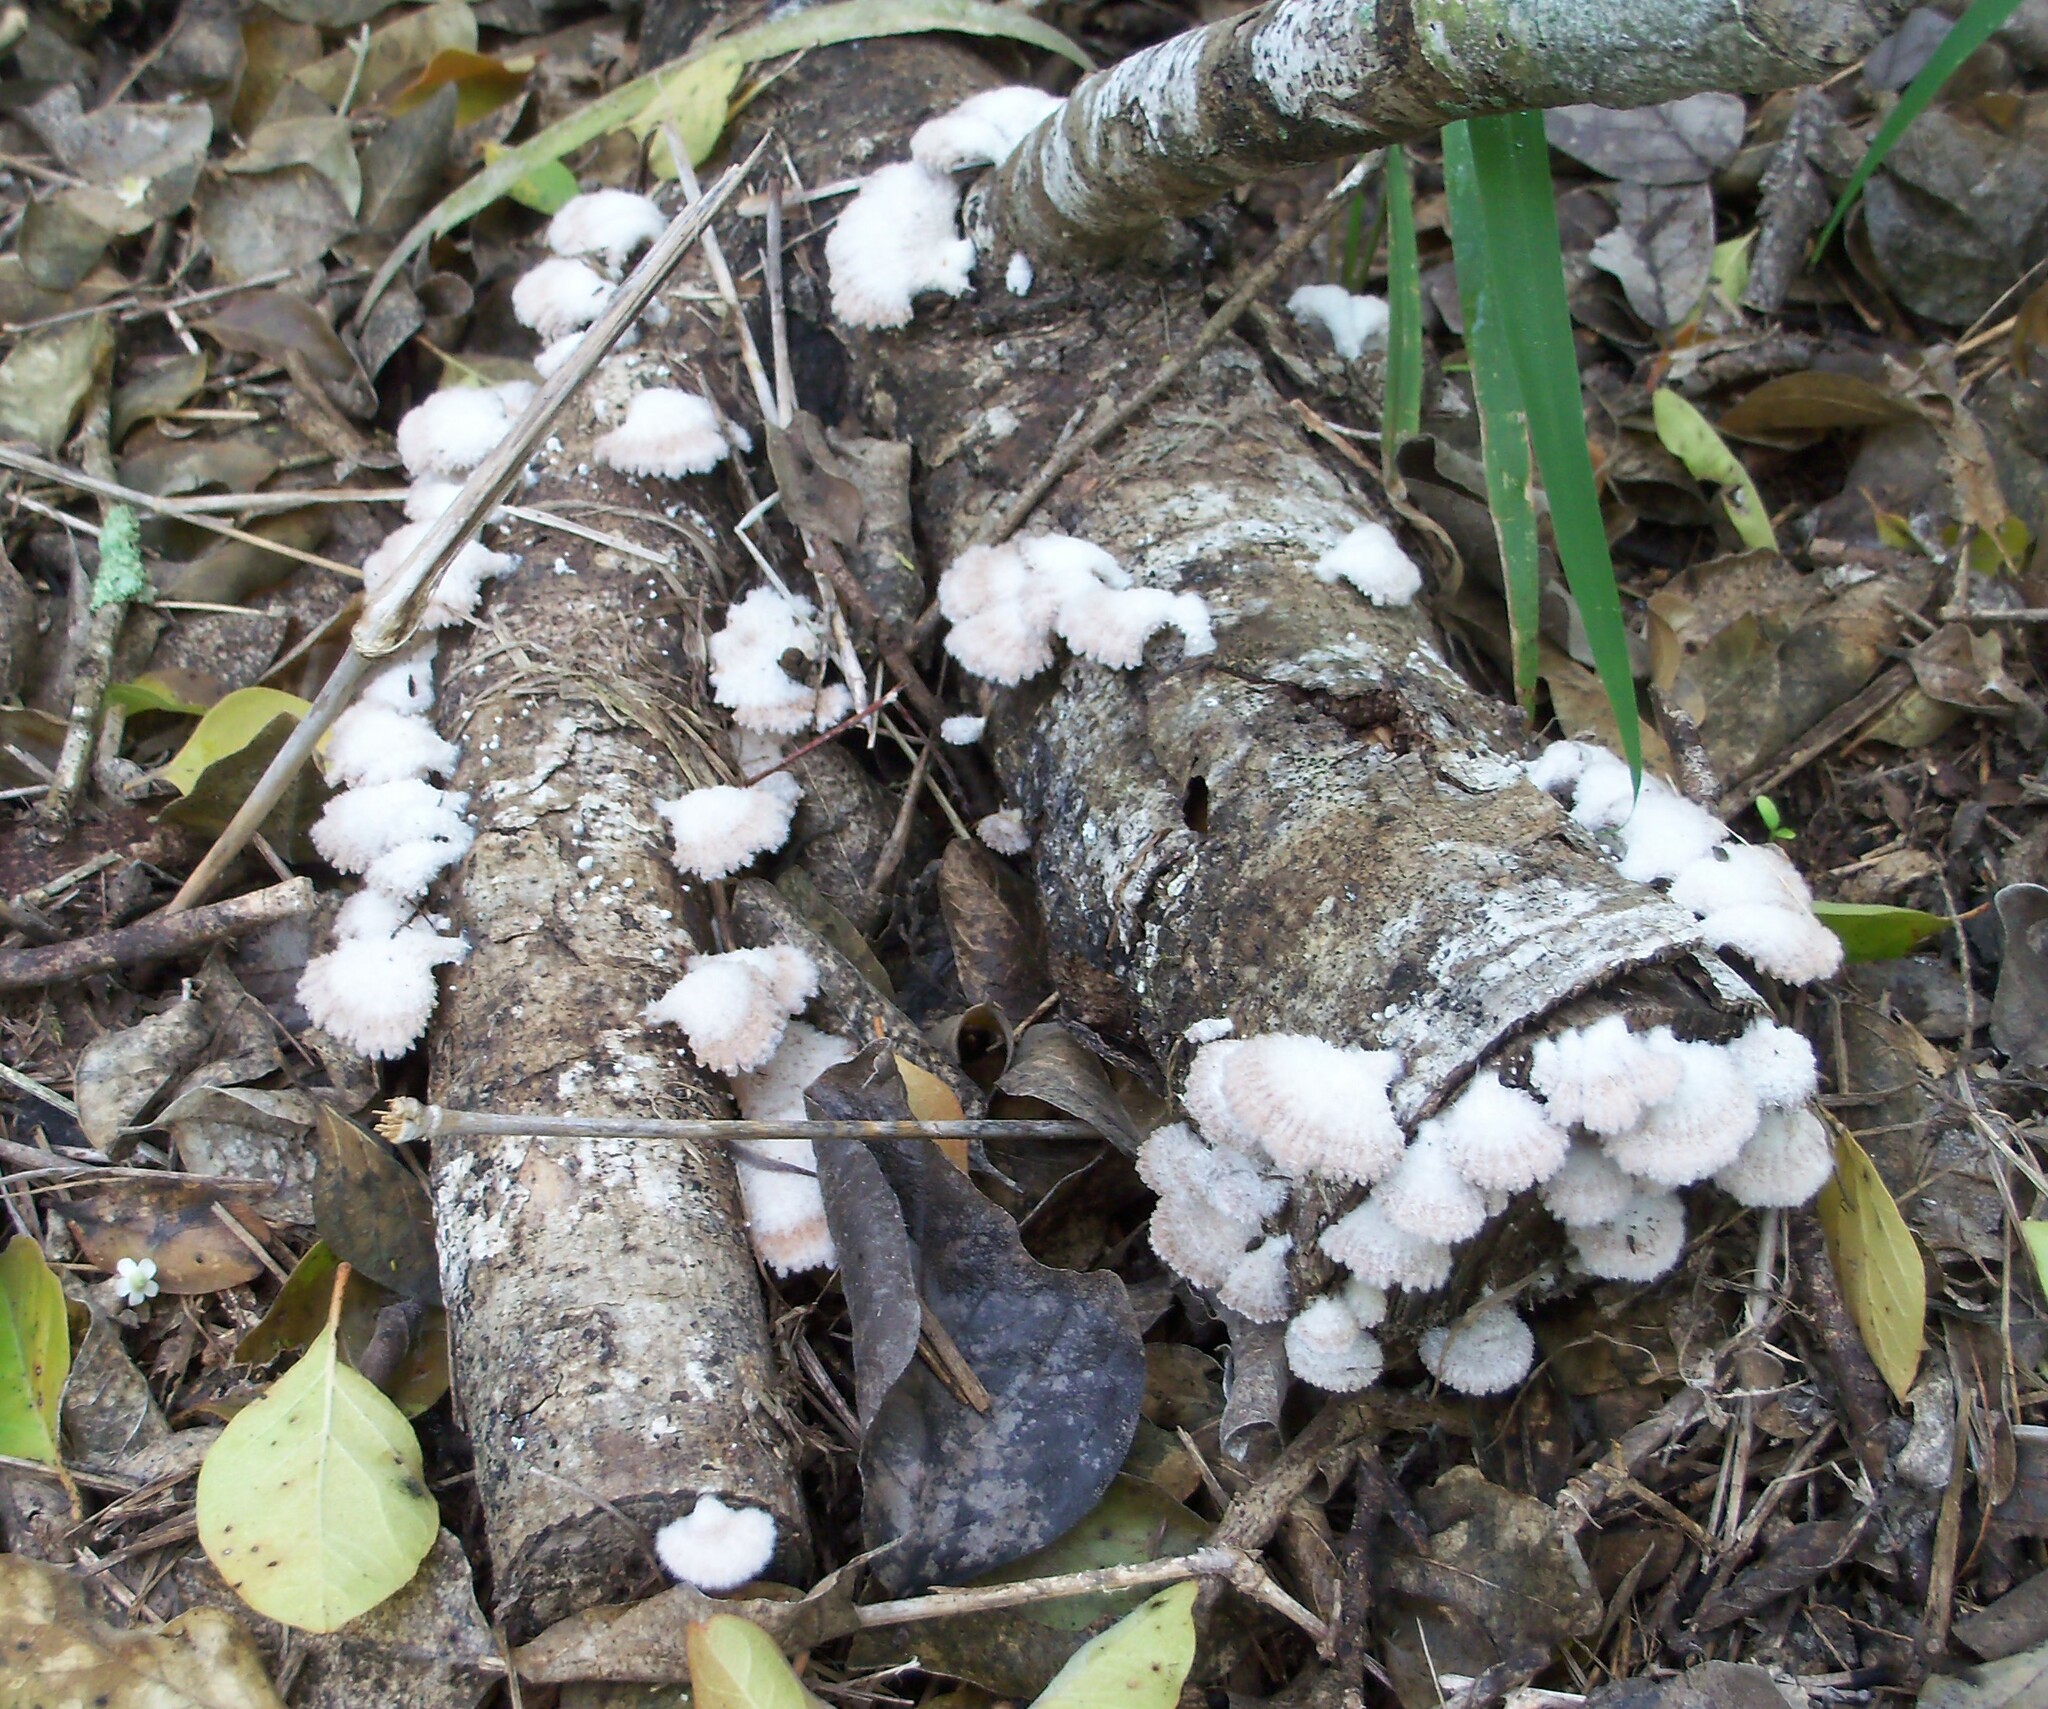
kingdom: Fungi
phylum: Basidiomycota
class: Agaricomycetes
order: Agaricales
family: Schizophyllaceae
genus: Schizophyllum
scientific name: Schizophyllum commune
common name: Common porecrust
